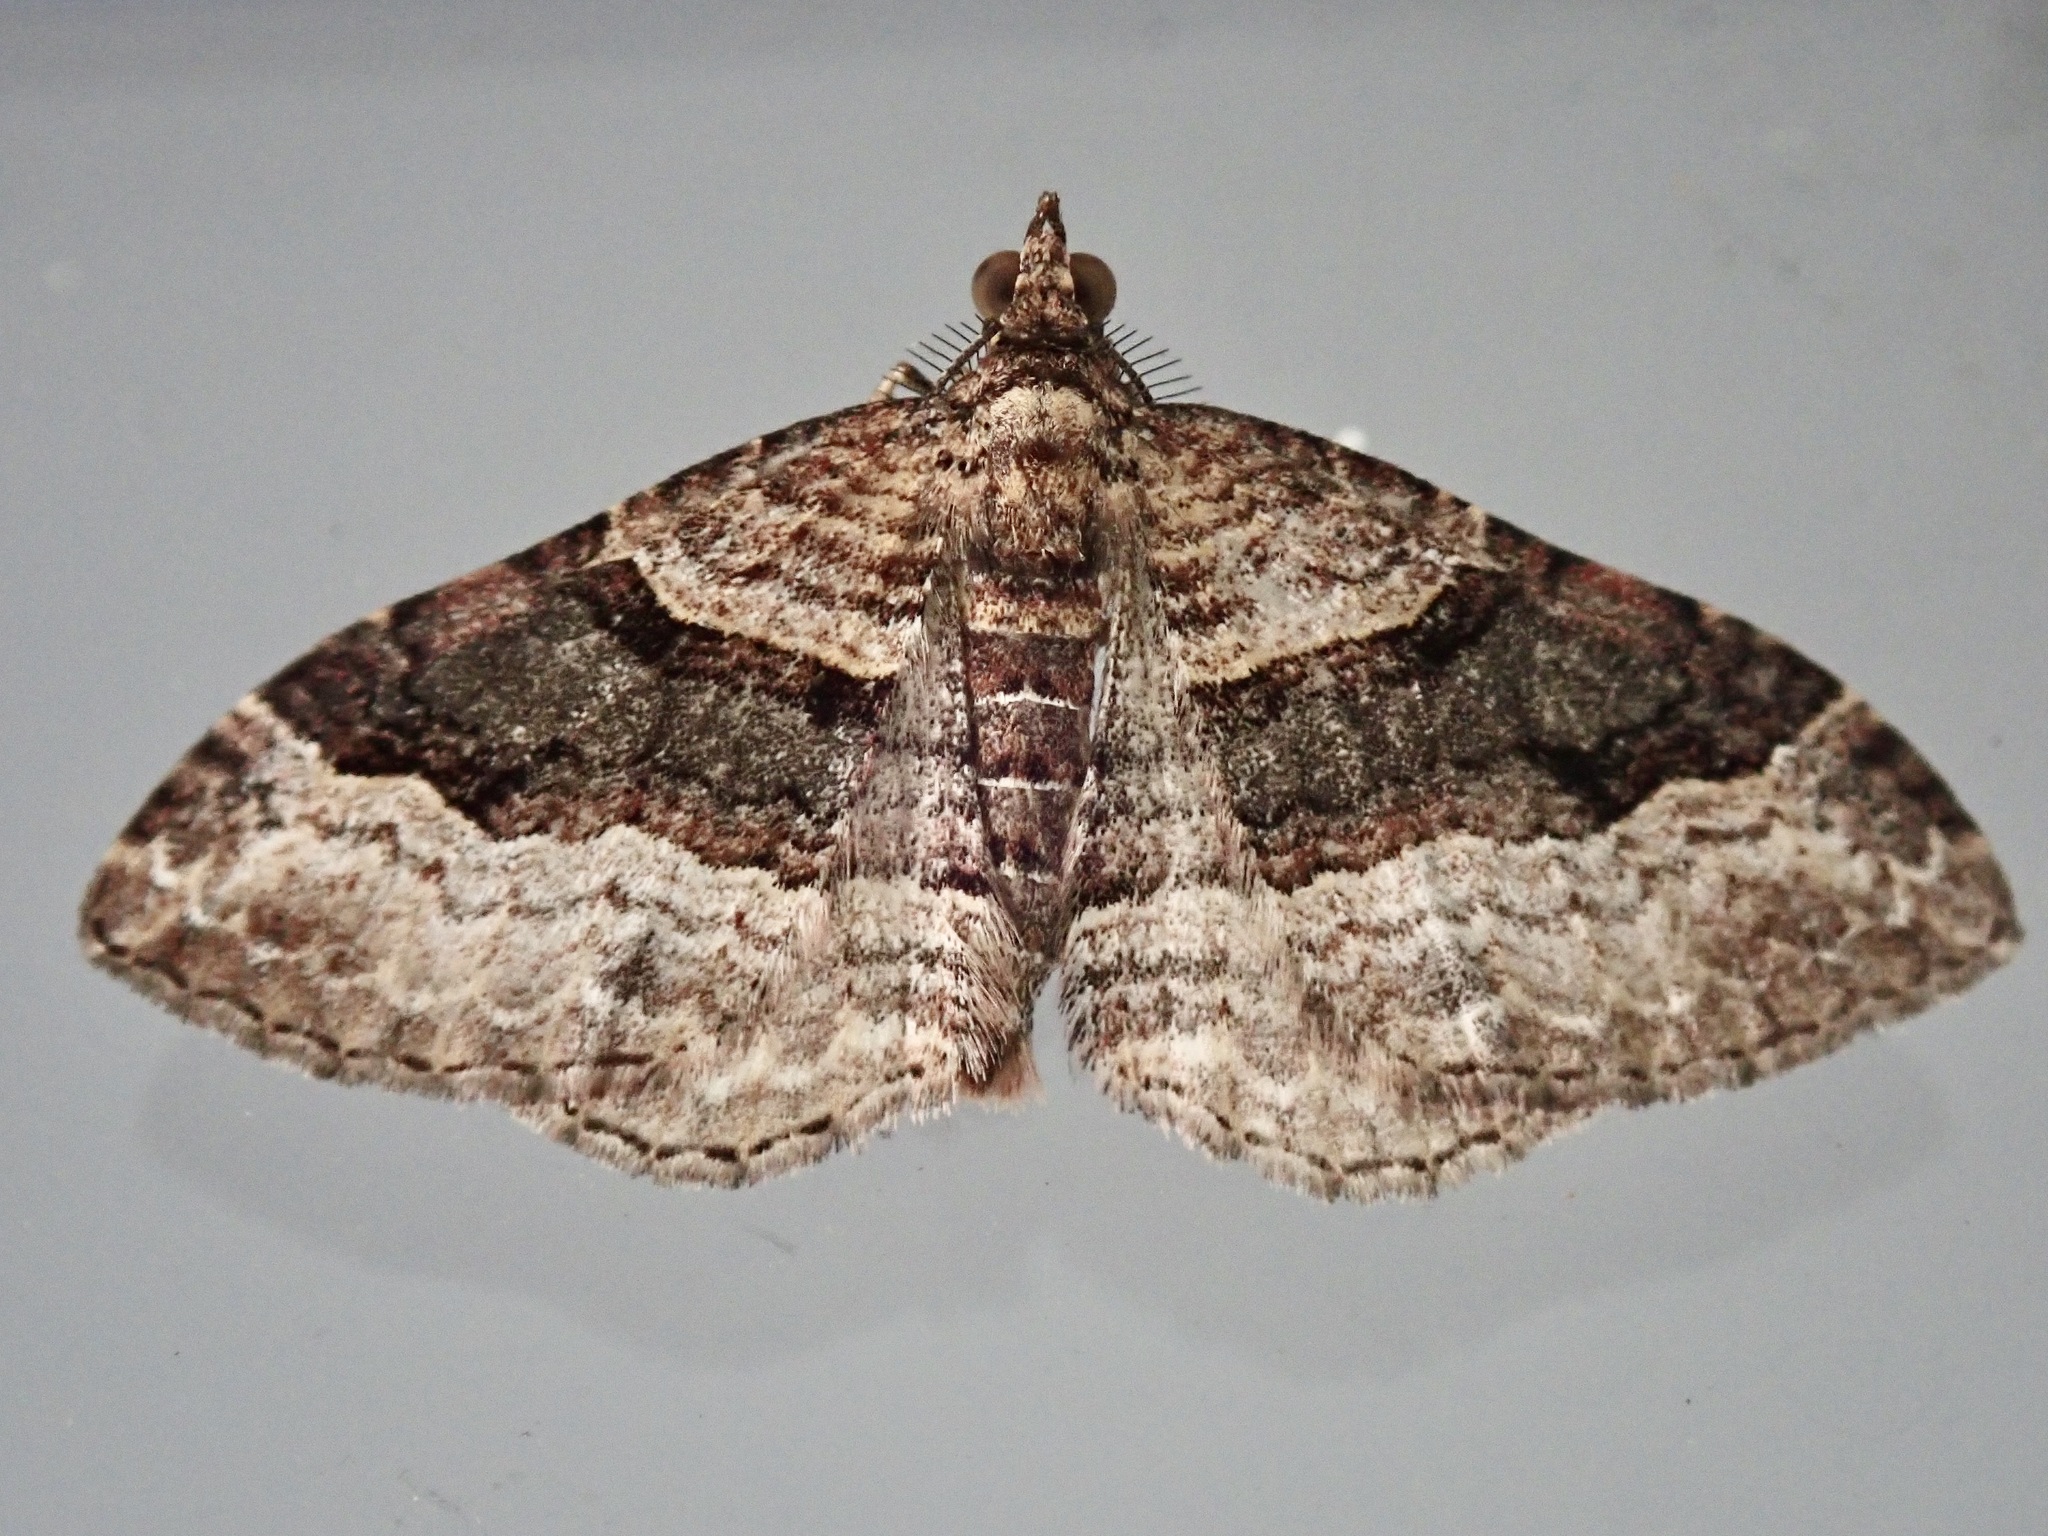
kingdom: Animalia
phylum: Arthropoda
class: Insecta
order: Lepidoptera
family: Geometridae
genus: Epyaxa
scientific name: Epyaxa lucidata
